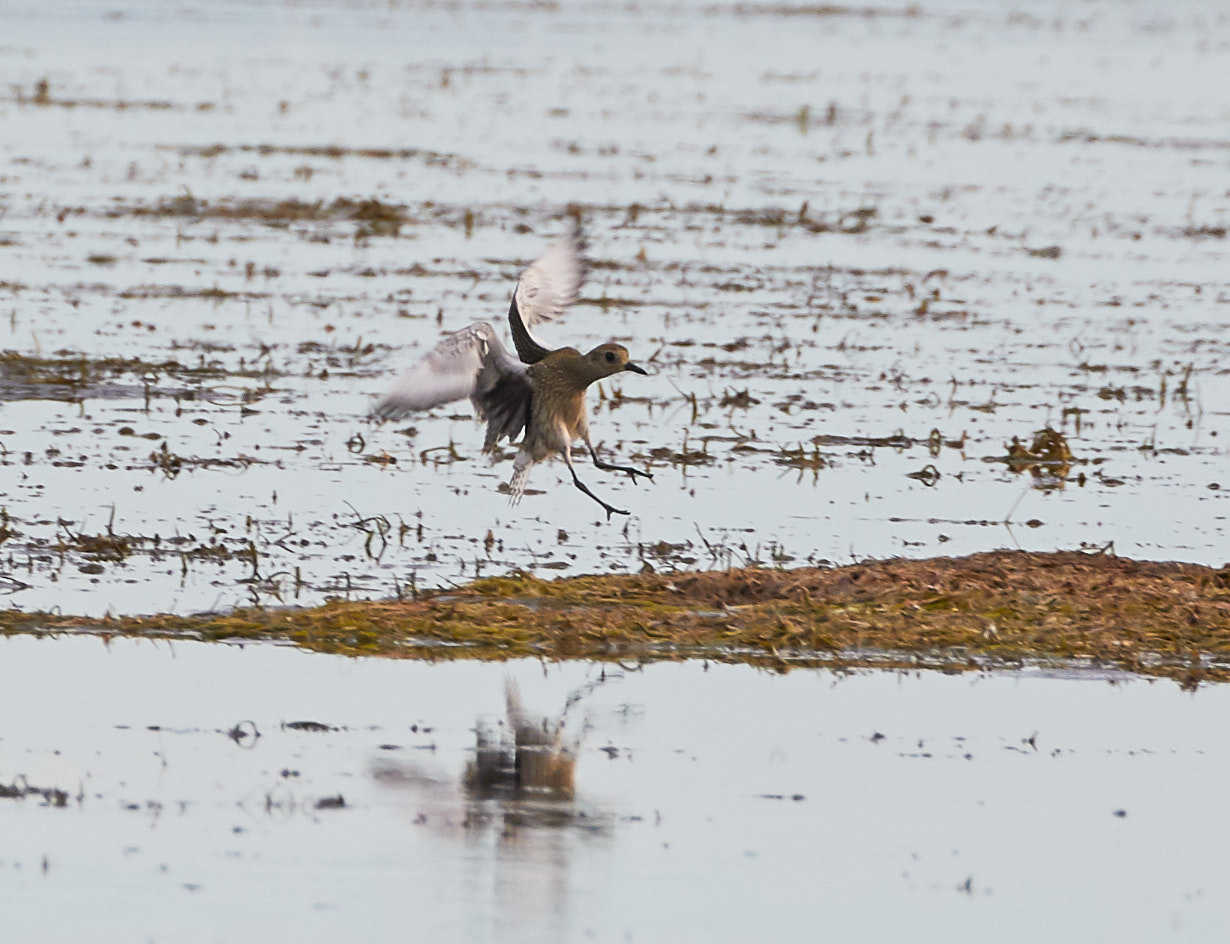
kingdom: Animalia
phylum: Chordata
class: Aves
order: Charadriiformes
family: Charadriidae
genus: Pluvialis
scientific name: Pluvialis squatarola
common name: Grey plover
